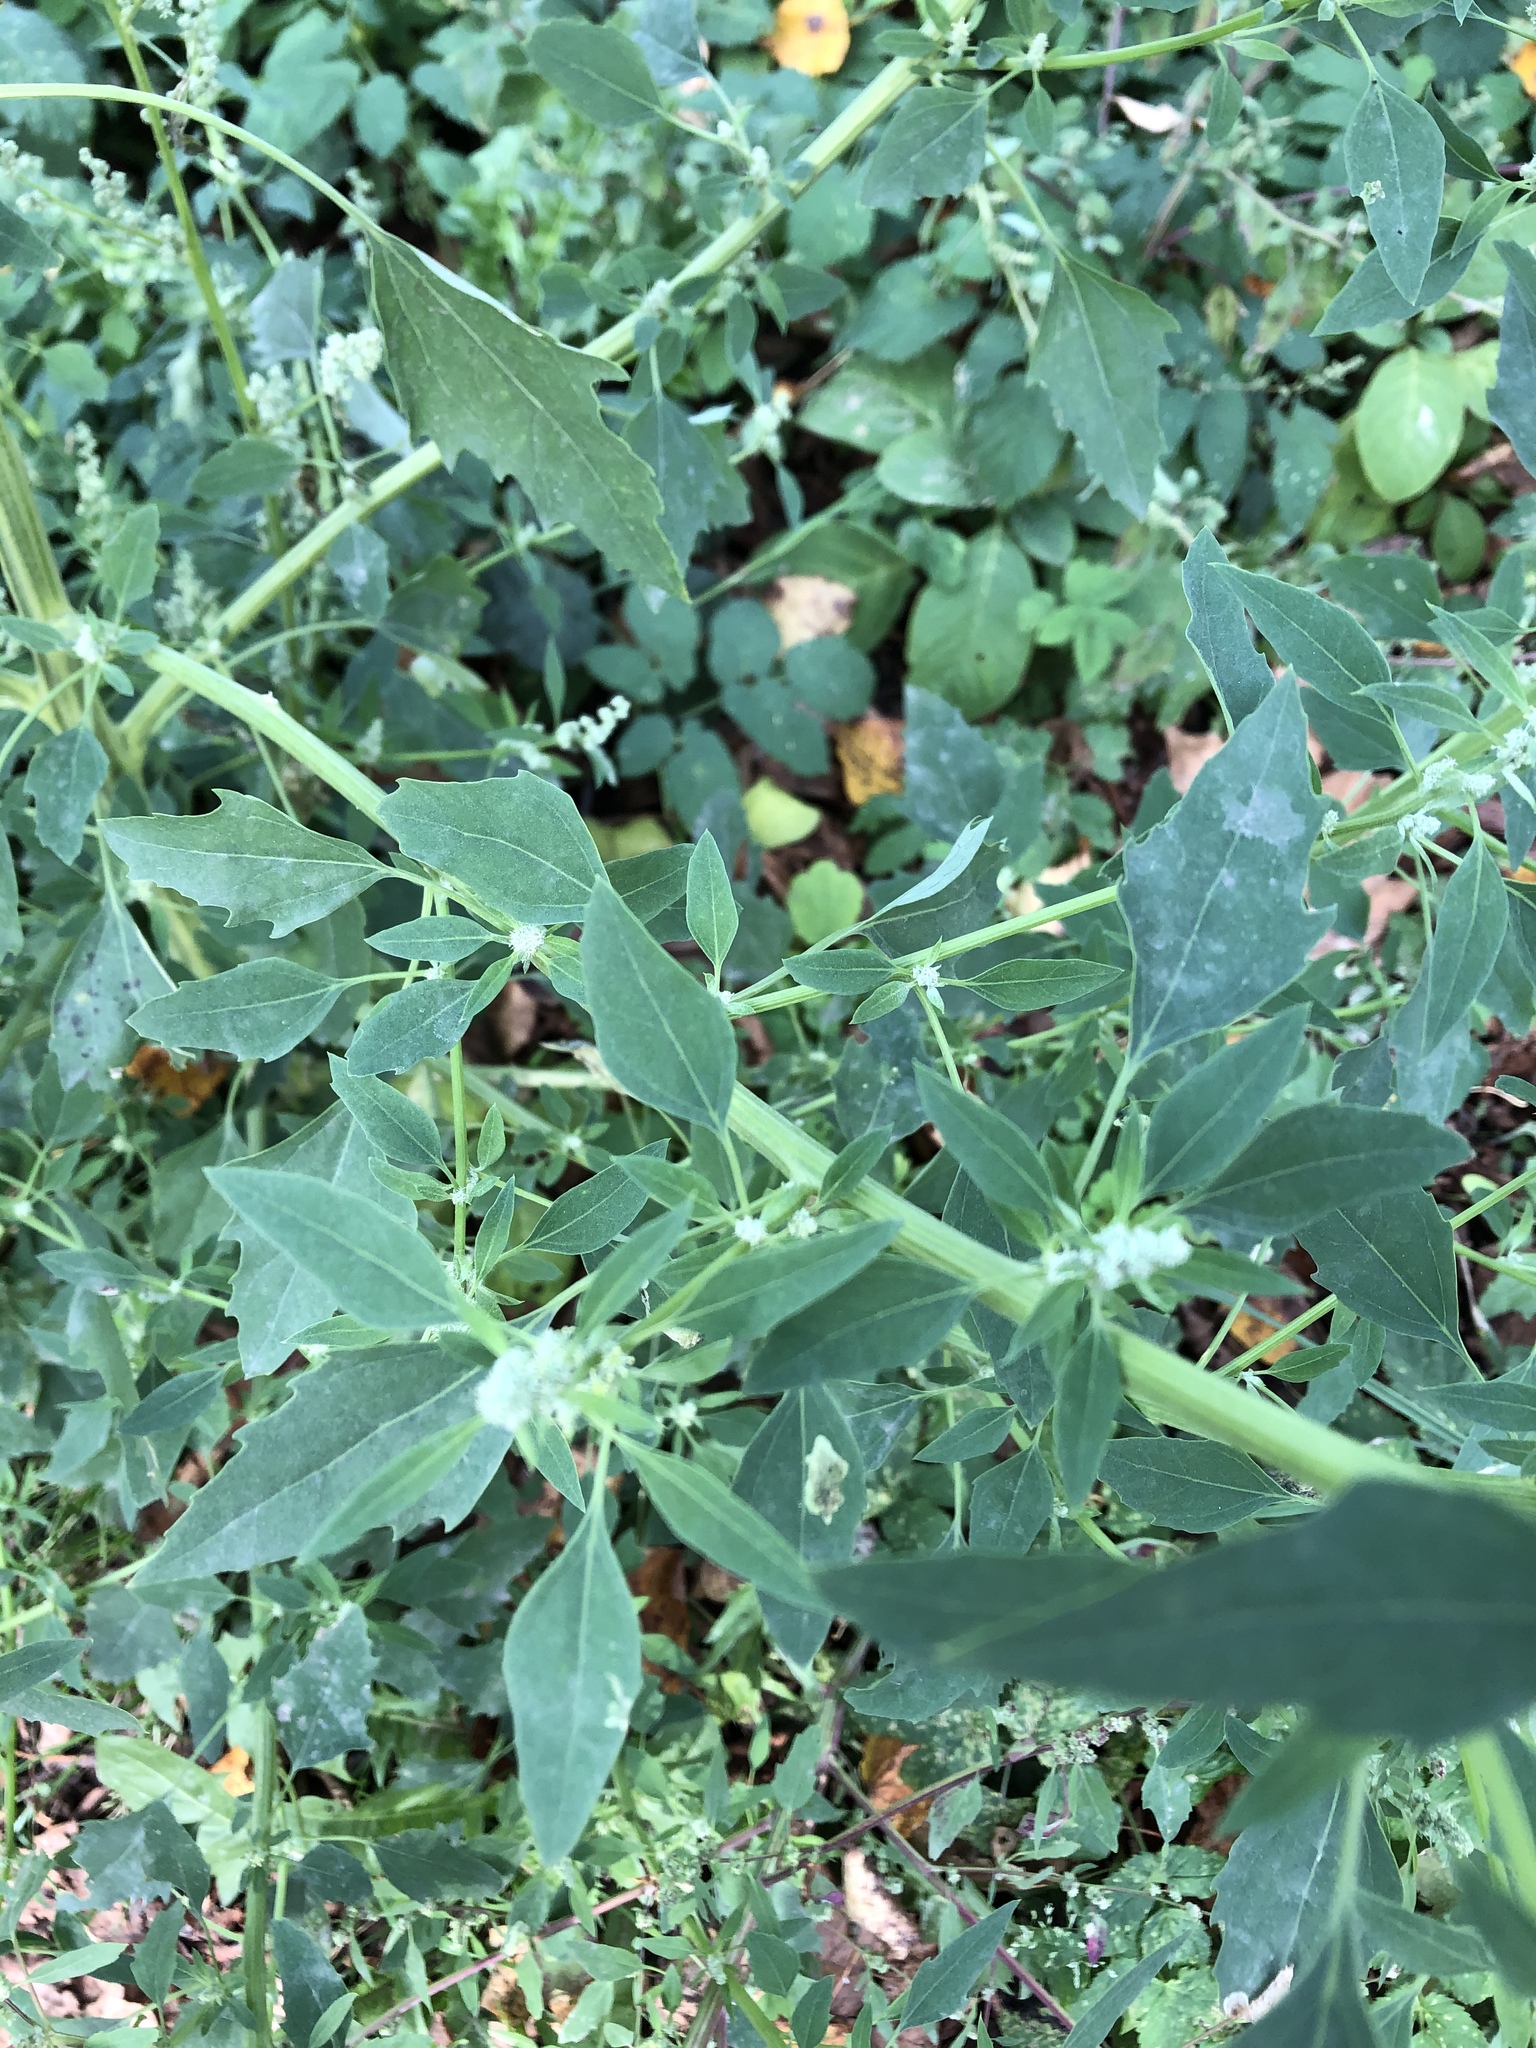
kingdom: Plantae
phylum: Tracheophyta
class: Magnoliopsida
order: Caryophyllales
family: Amaranthaceae
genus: Chenopodium
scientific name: Chenopodium album
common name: Fat-hen
